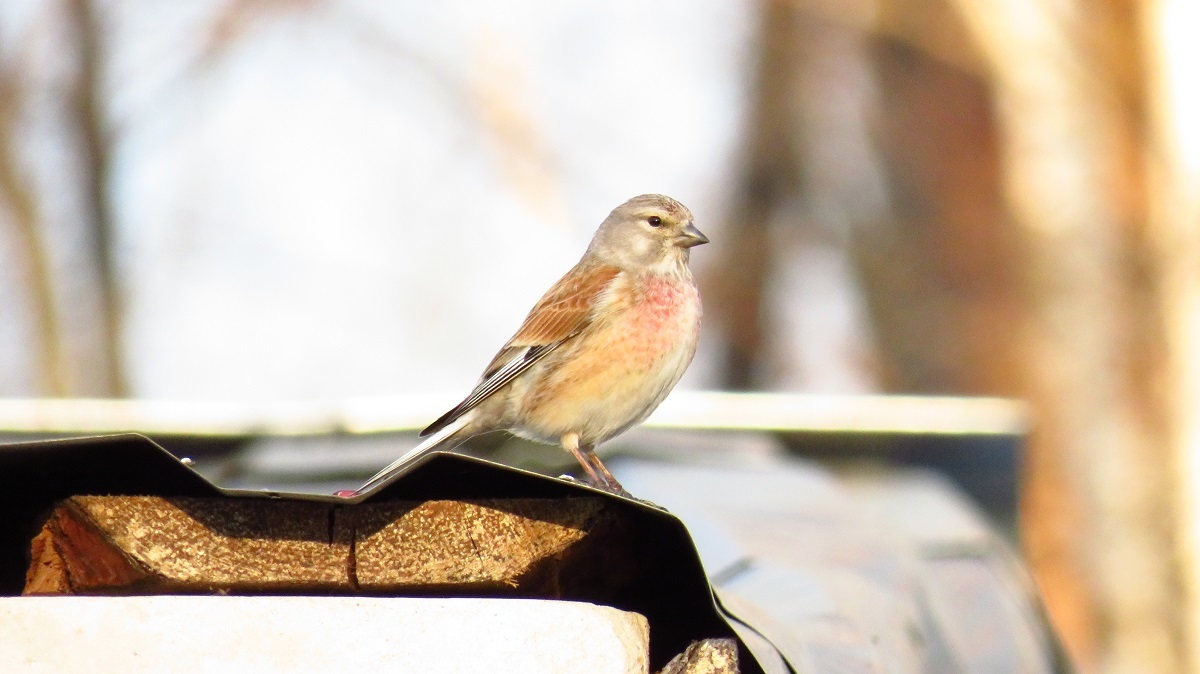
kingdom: Animalia
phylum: Chordata
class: Aves
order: Passeriformes
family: Fringillidae
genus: Linaria
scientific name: Linaria cannabina
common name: Common linnet
